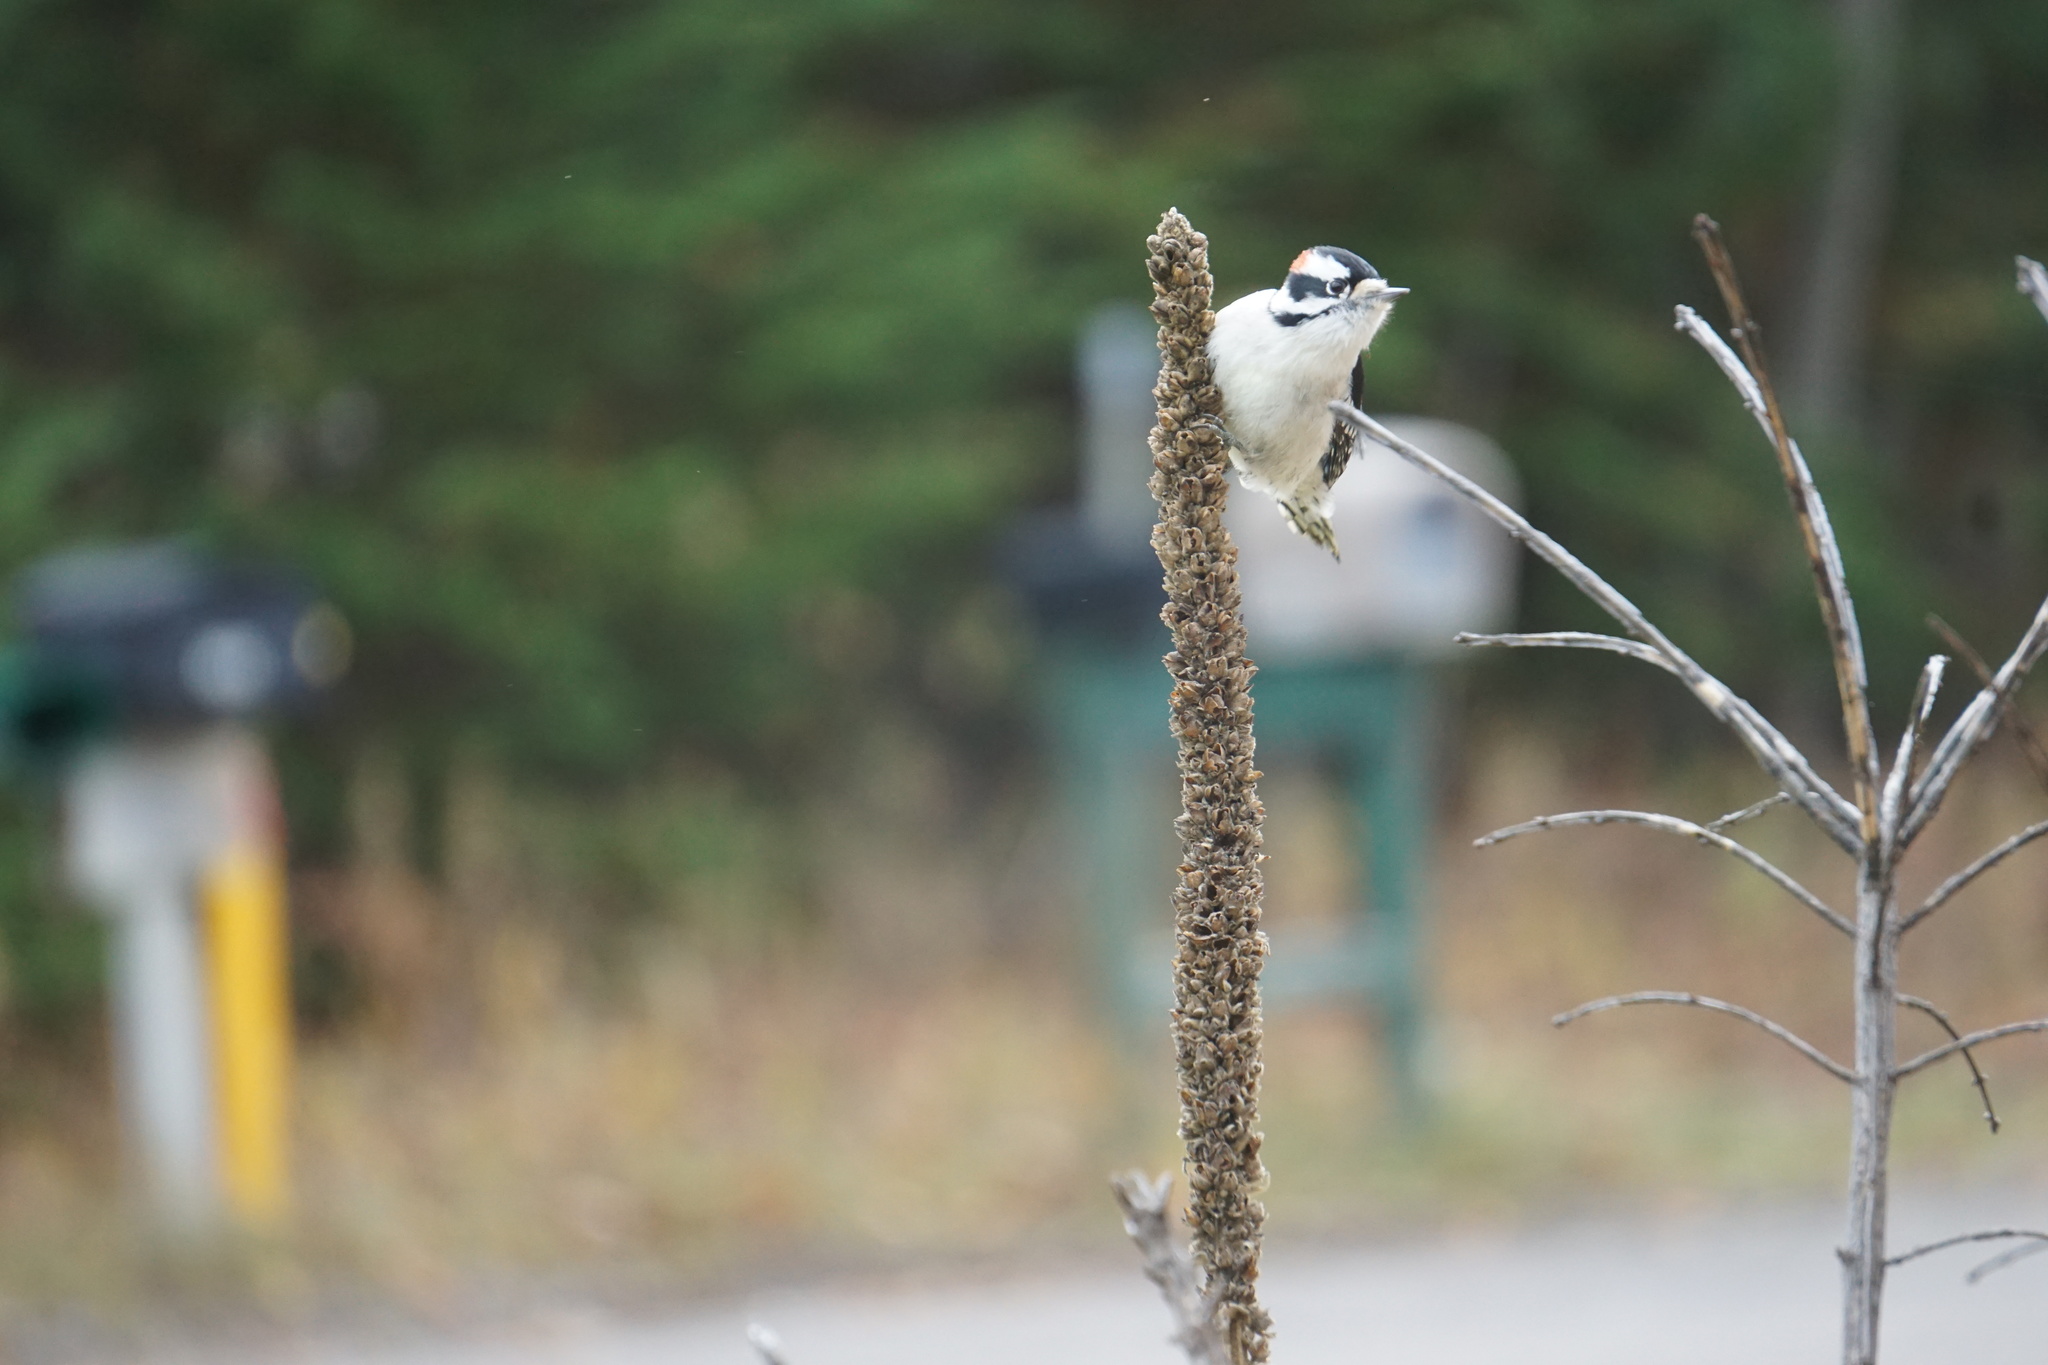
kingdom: Animalia
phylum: Chordata
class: Aves
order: Piciformes
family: Picidae
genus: Dryobates
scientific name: Dryobates pubescens
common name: Downy woodpecker
